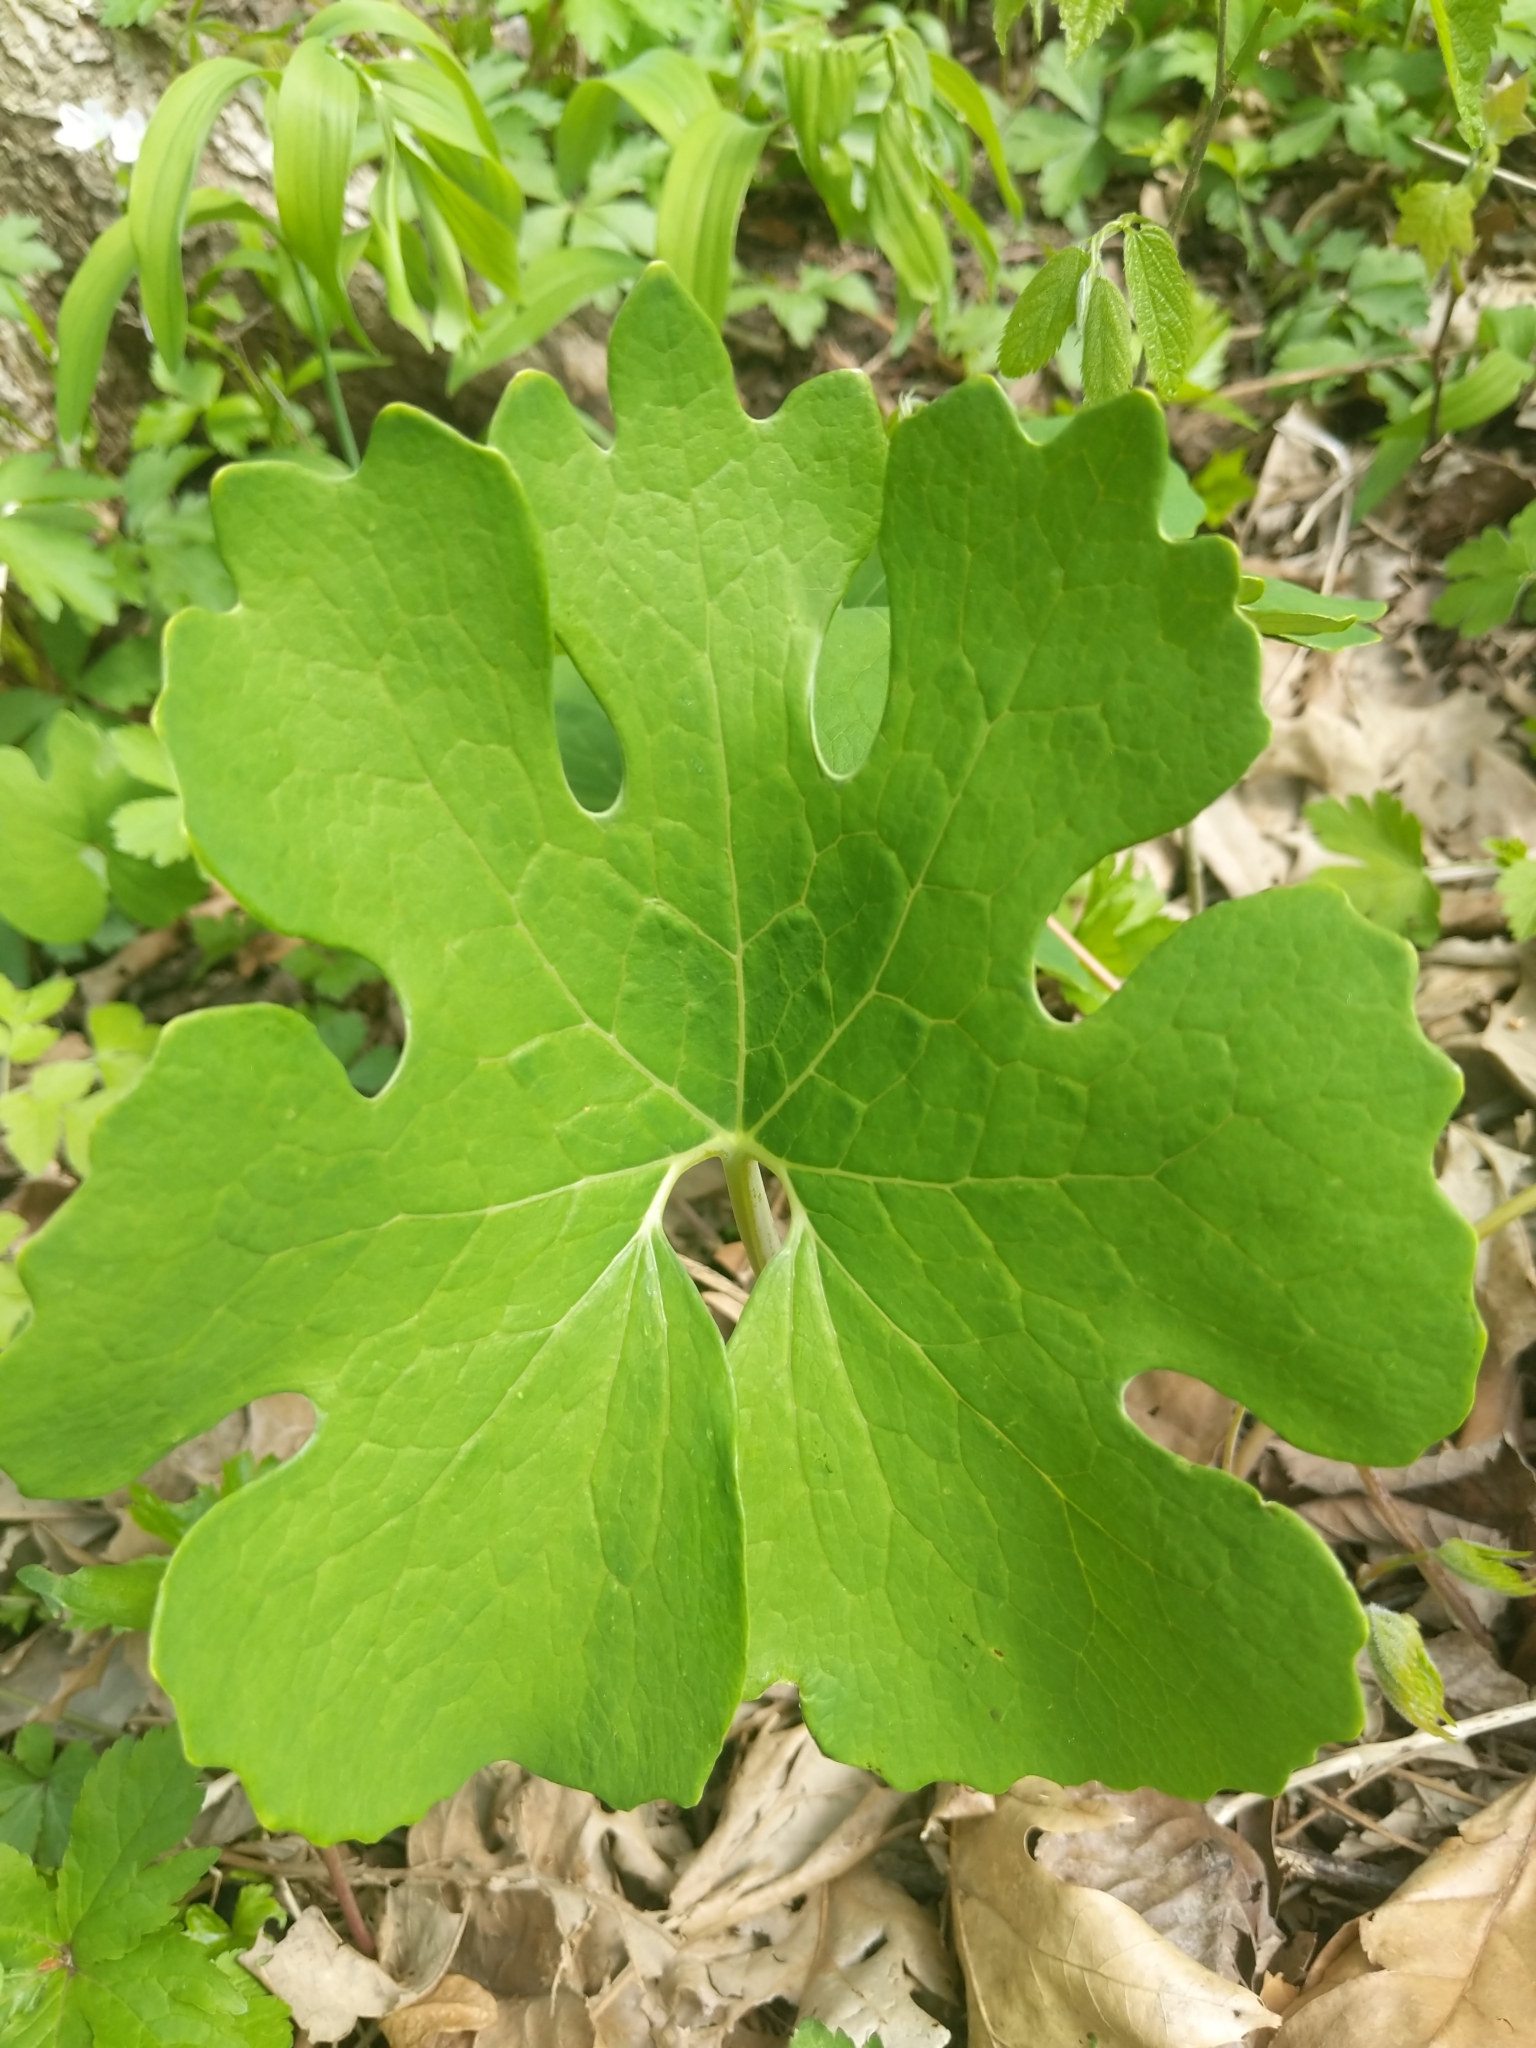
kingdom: Plantae
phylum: Tracheophyta
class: Magnoliopsida
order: Ranunculales
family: Papaveraceae
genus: Sanguinaria
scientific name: Sanguinaria canadensis
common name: Bloodroot
